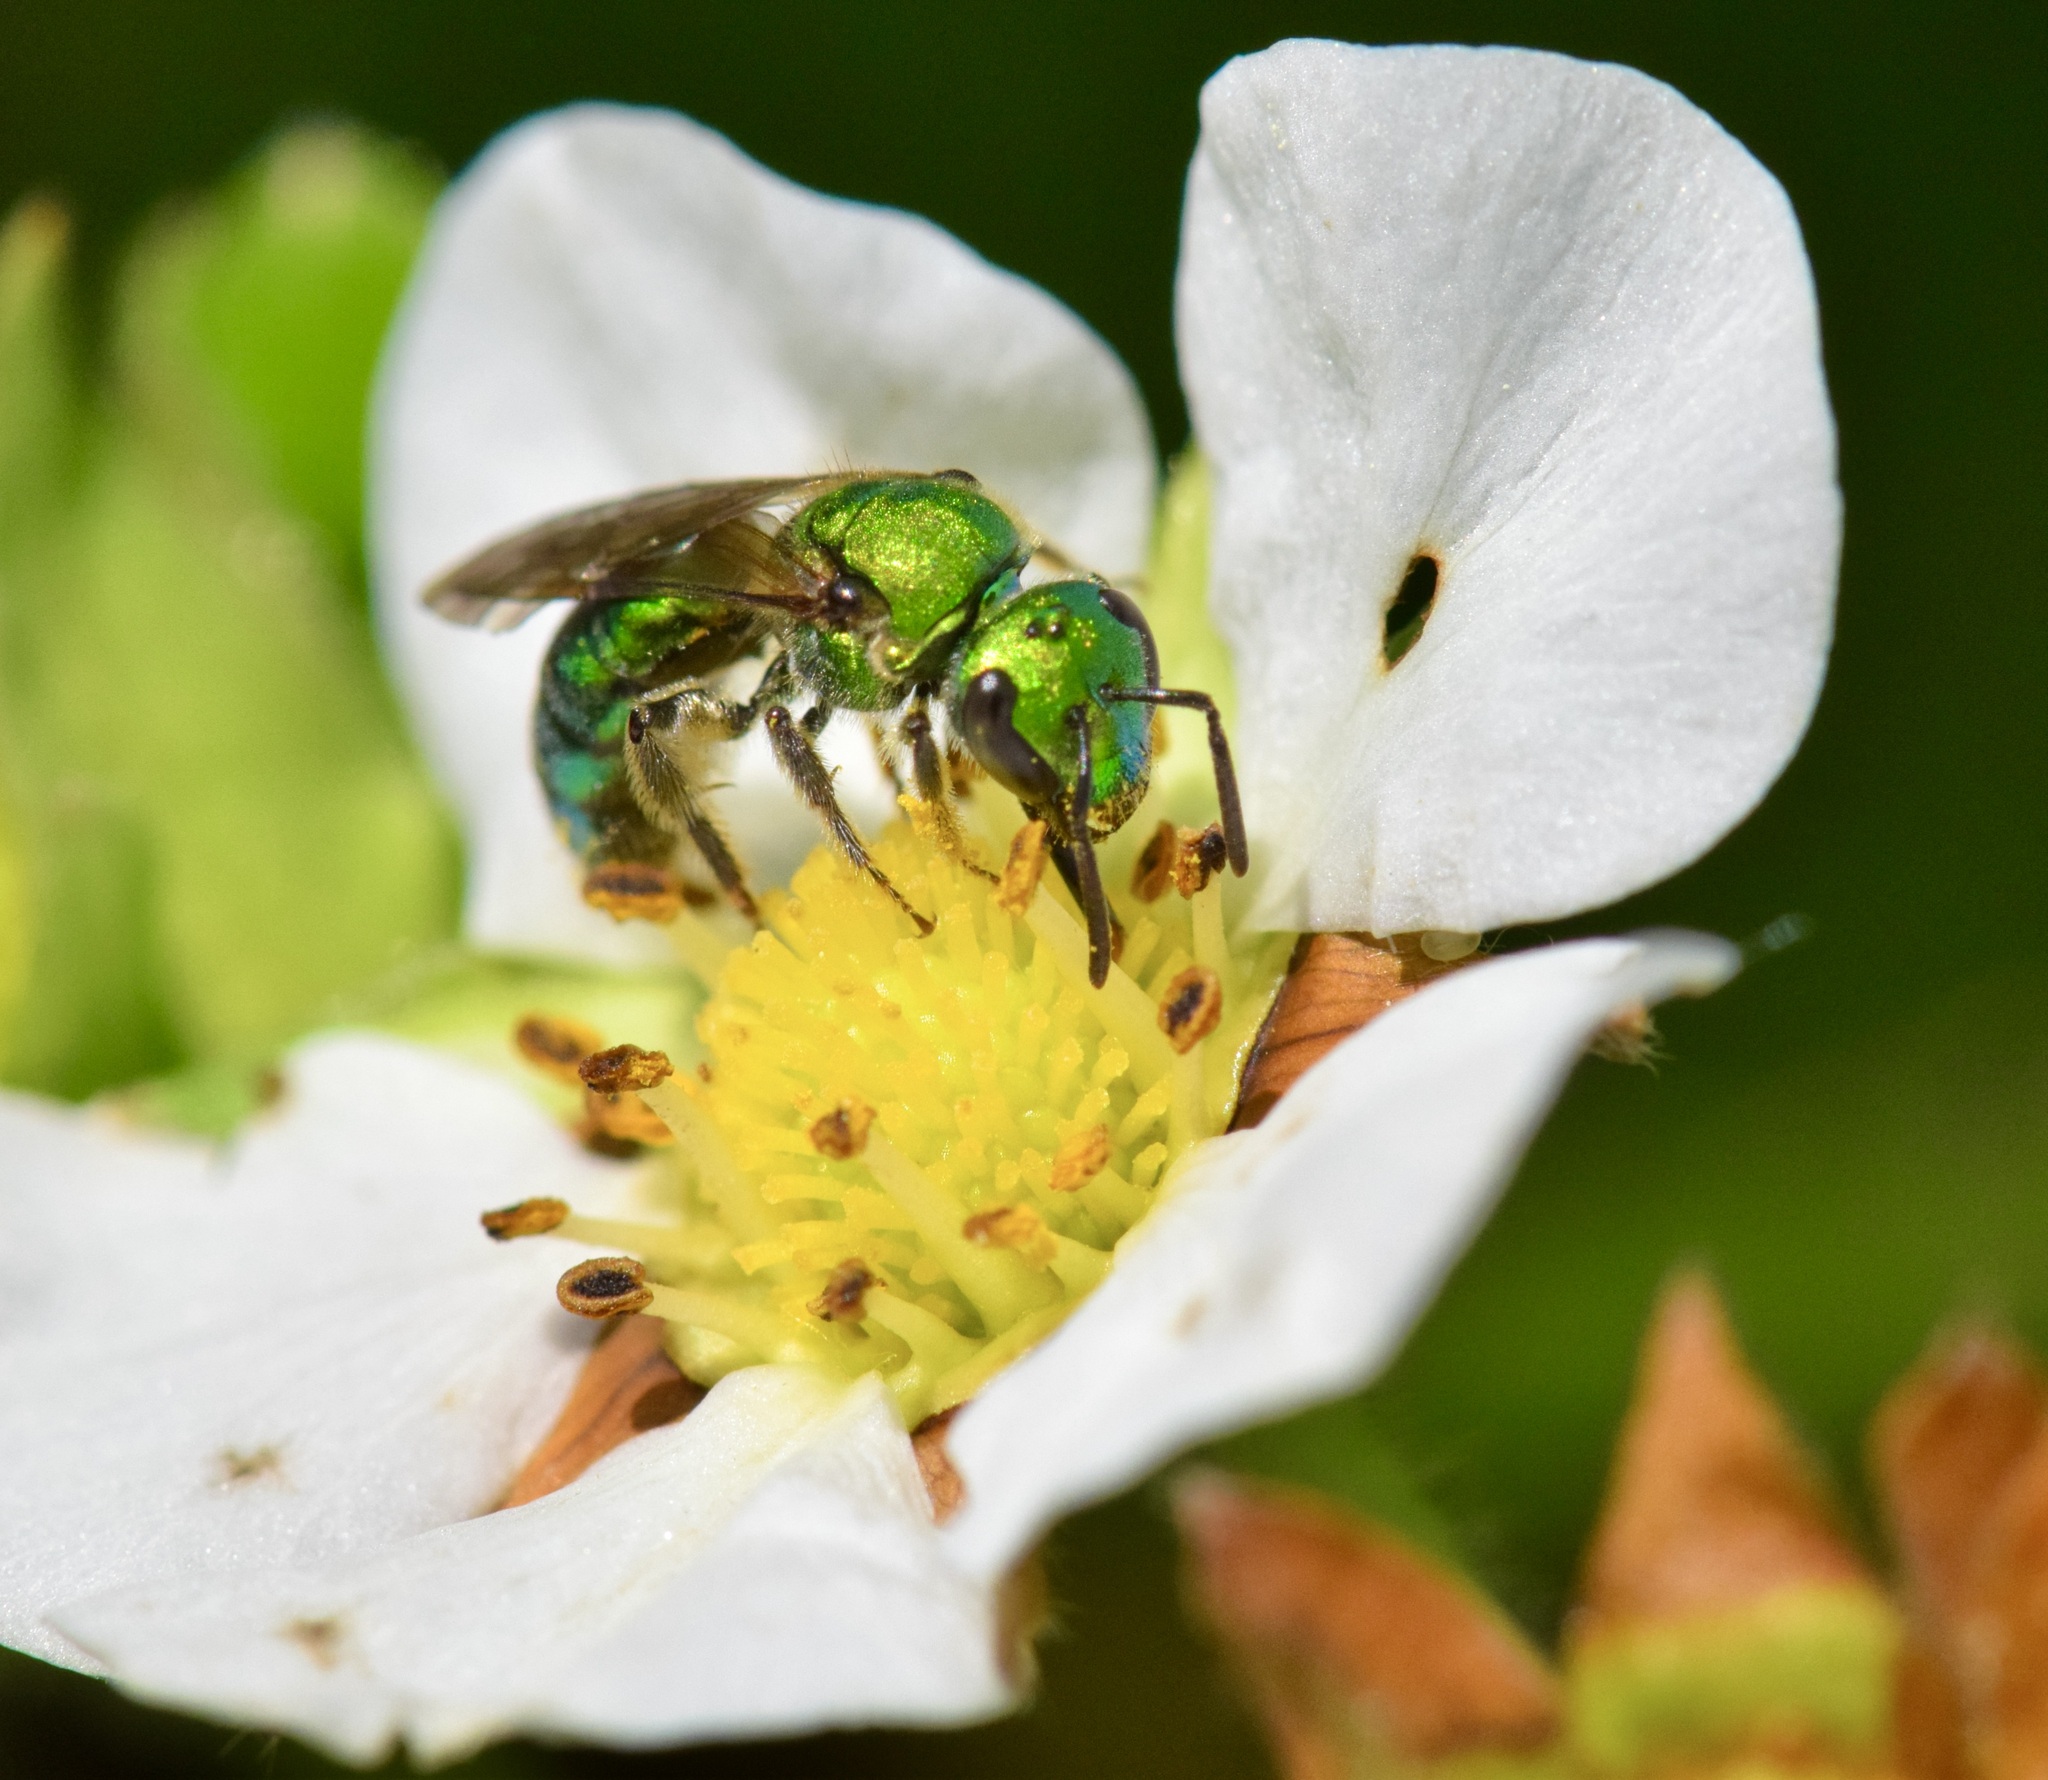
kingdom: Animalia
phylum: Arthropoda
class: Insecta
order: Hymenoptera
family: Halictidae
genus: Augochlora
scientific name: Augochlora pura
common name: Pure green sweat bee
